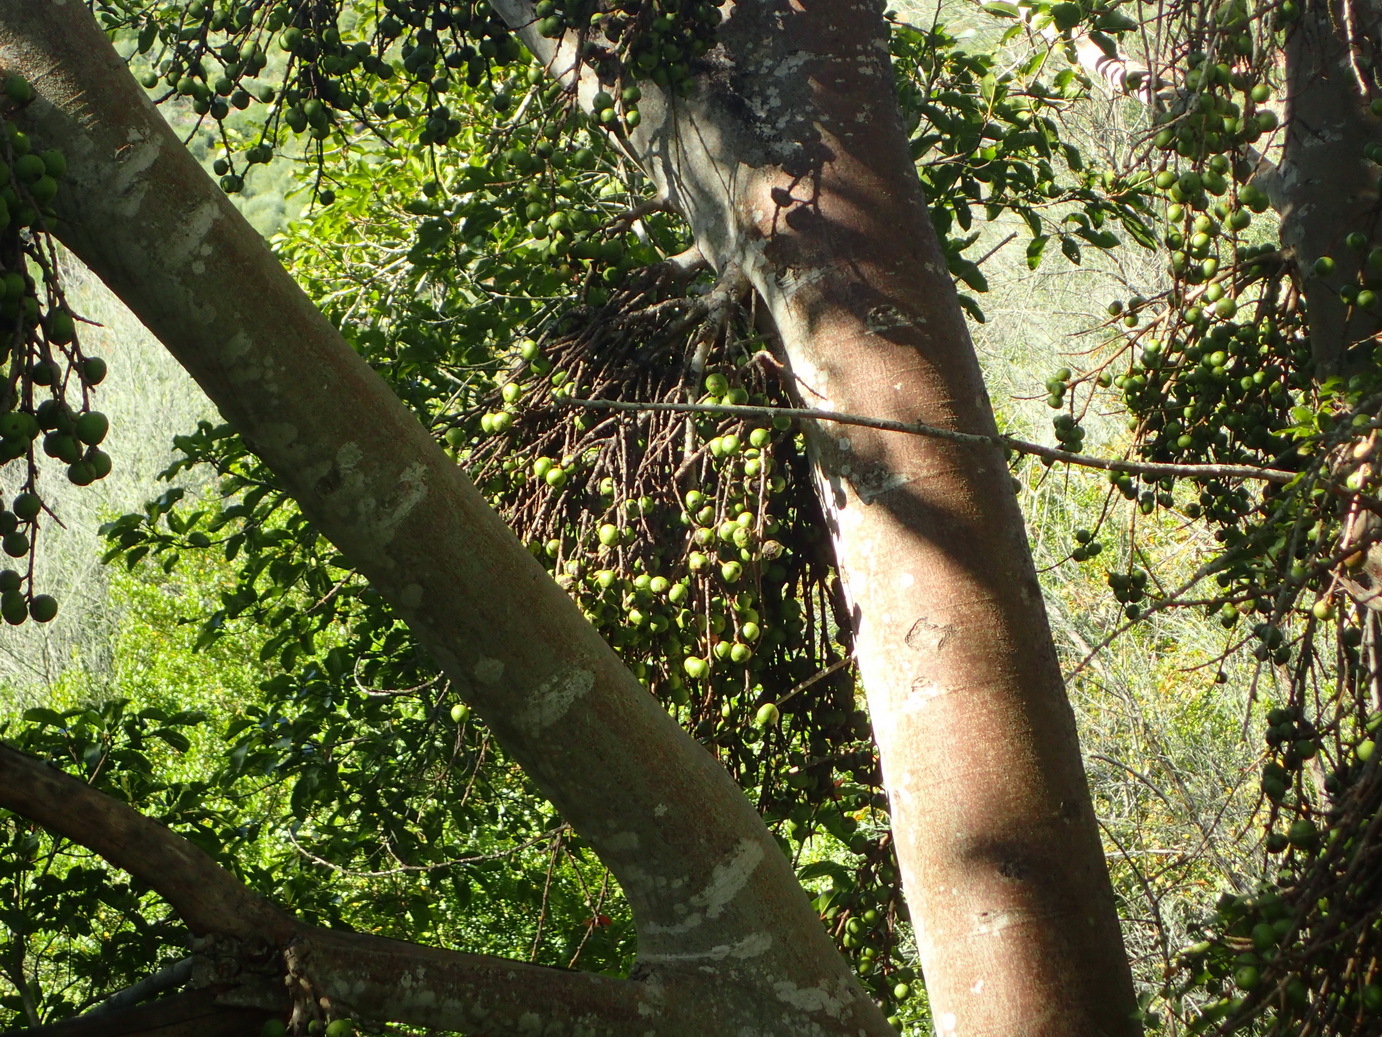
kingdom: Plantae
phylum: Tracheophyta
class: Magnoliopsida
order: Rosales
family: Moraceae
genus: Ficus
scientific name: Ficus sur
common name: Cape fig
